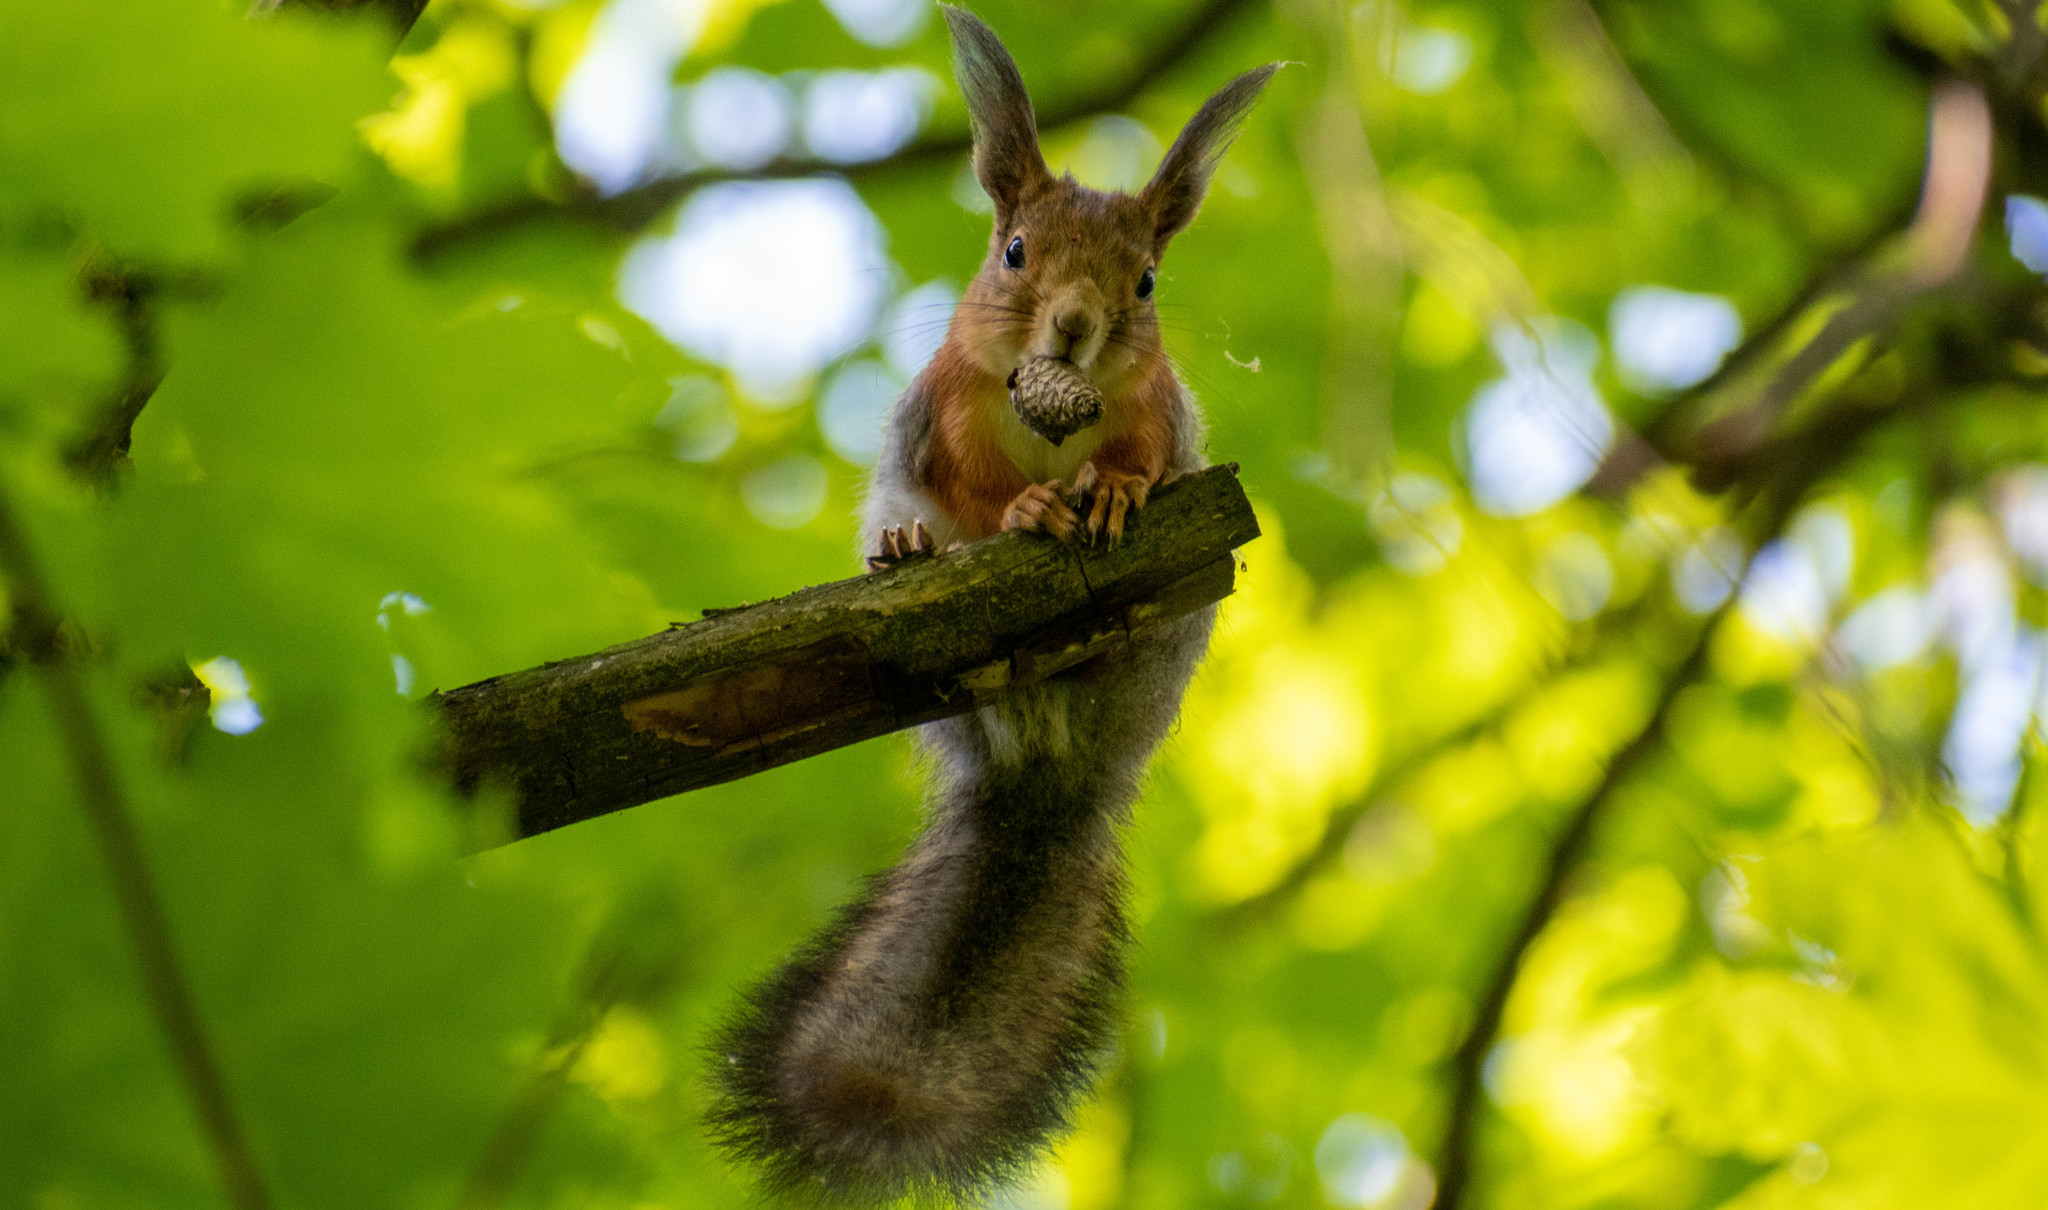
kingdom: Animalia
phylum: Chordata
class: Mammalia
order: Rodentia
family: Sciuridae
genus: Sciurus
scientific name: Sciurus vulgaris
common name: Eurasian red squirrel
